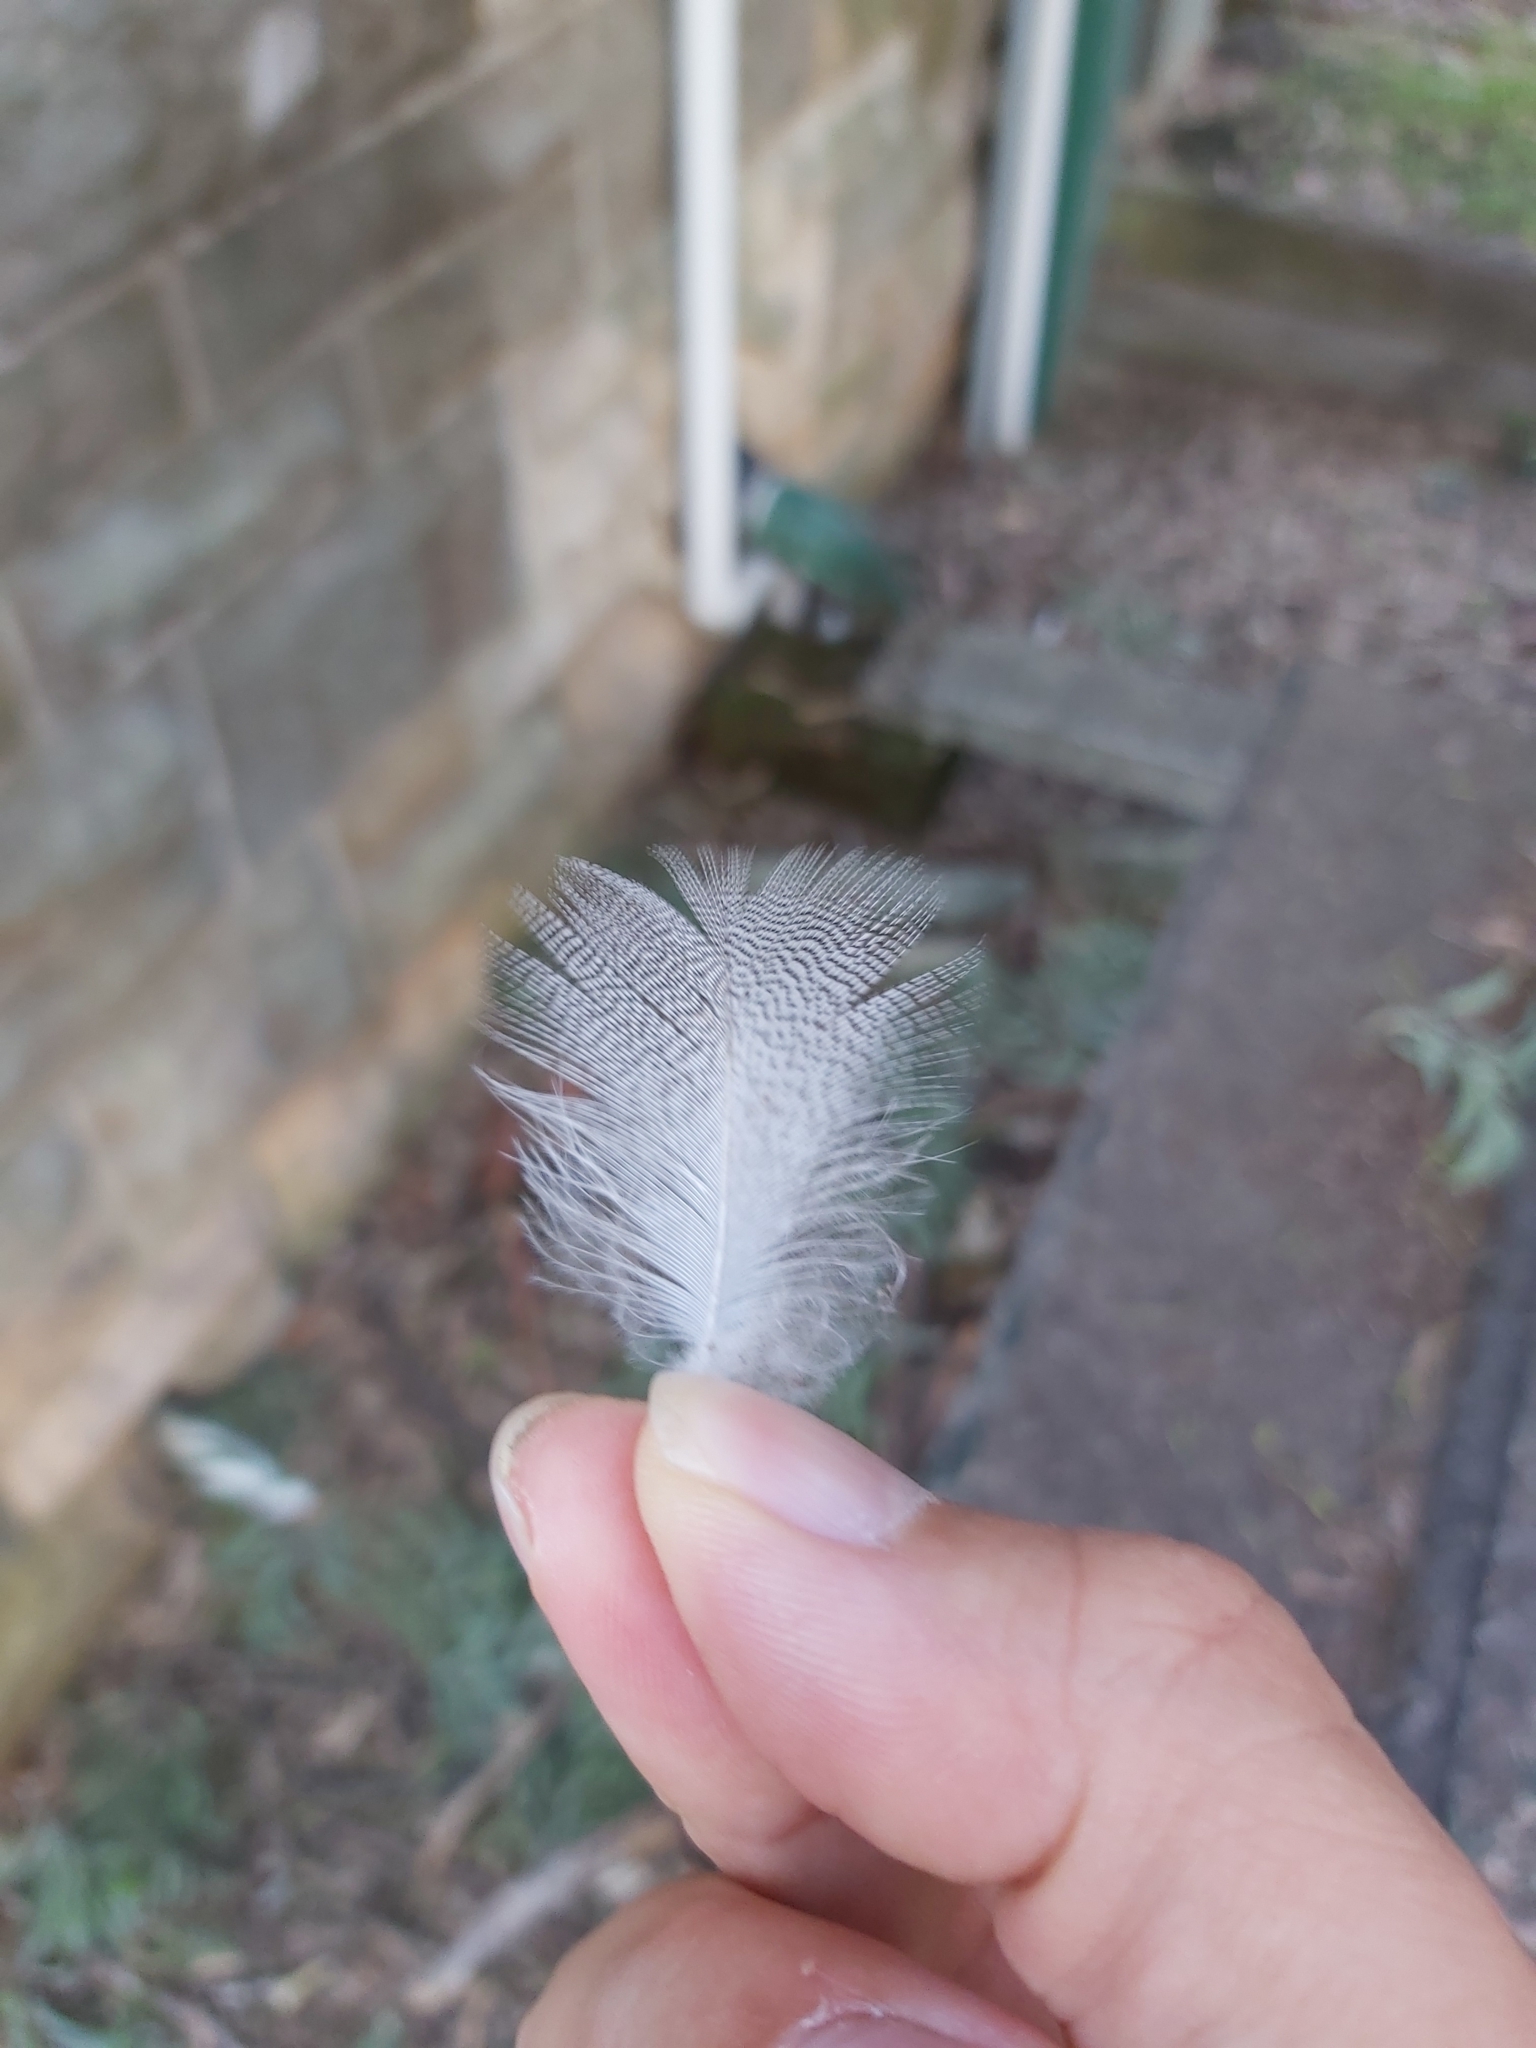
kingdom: Animalia
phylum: Chordata
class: Aves
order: Anseriformes
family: Anatidae
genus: Chenonetta
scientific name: Chenonetta jubata
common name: Maned duck
